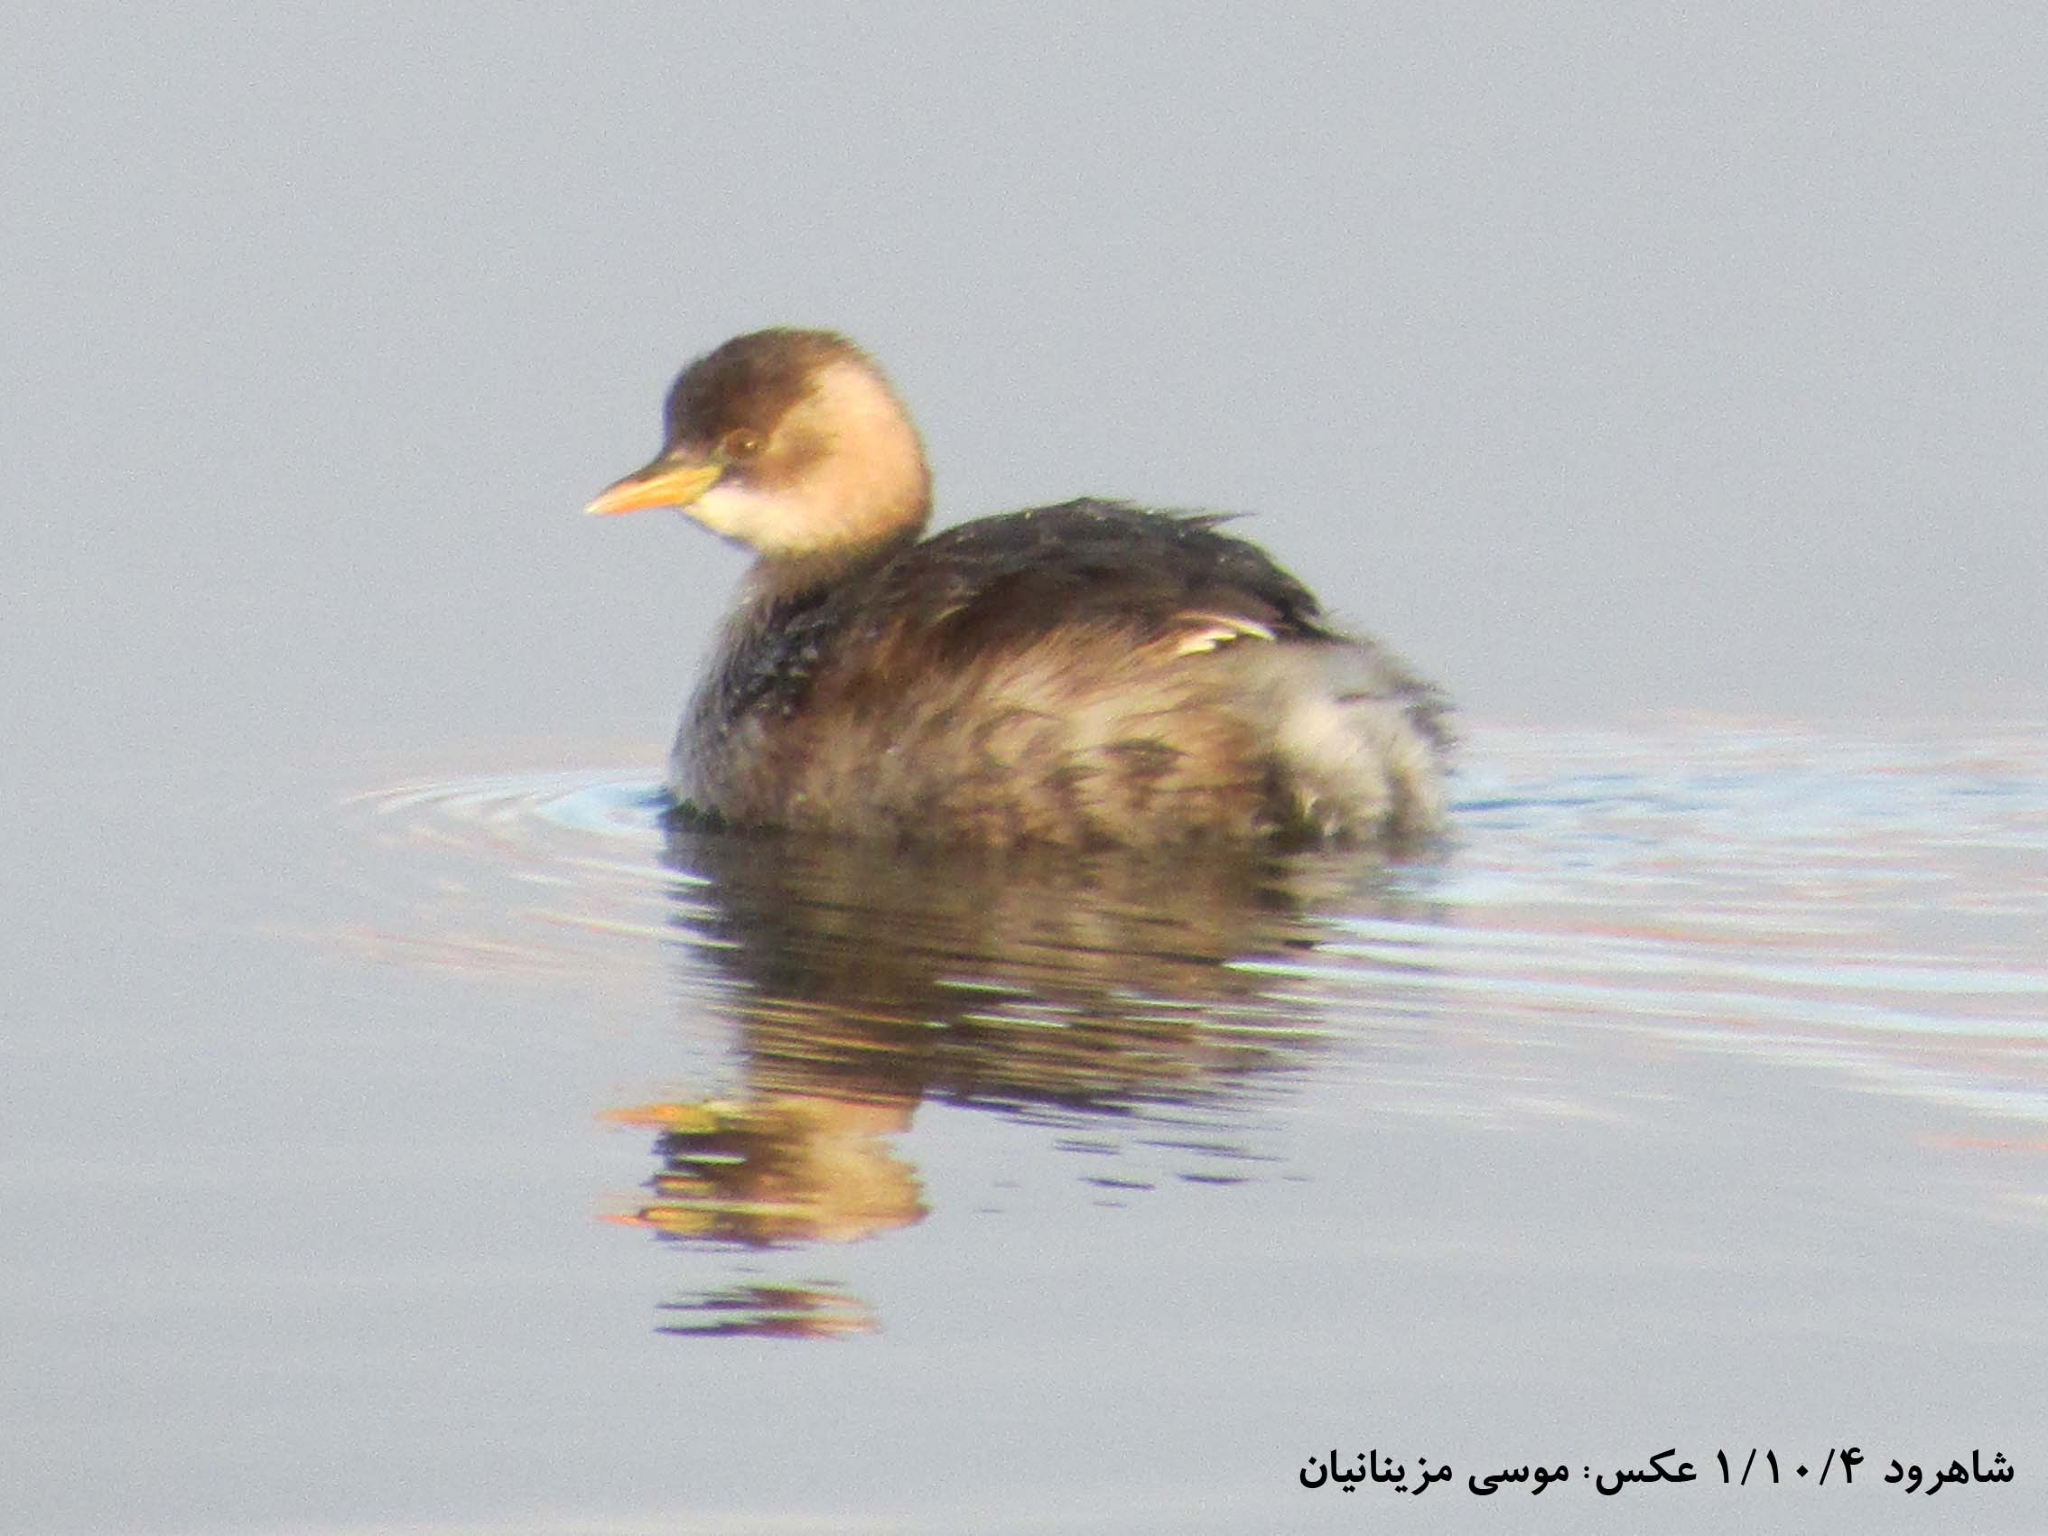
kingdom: Animalia
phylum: Chordata
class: Aves
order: Podicipediformes
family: Podicipedidae
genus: Tachybaptus
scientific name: Tachybaptus ruficollis
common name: Little grebe
